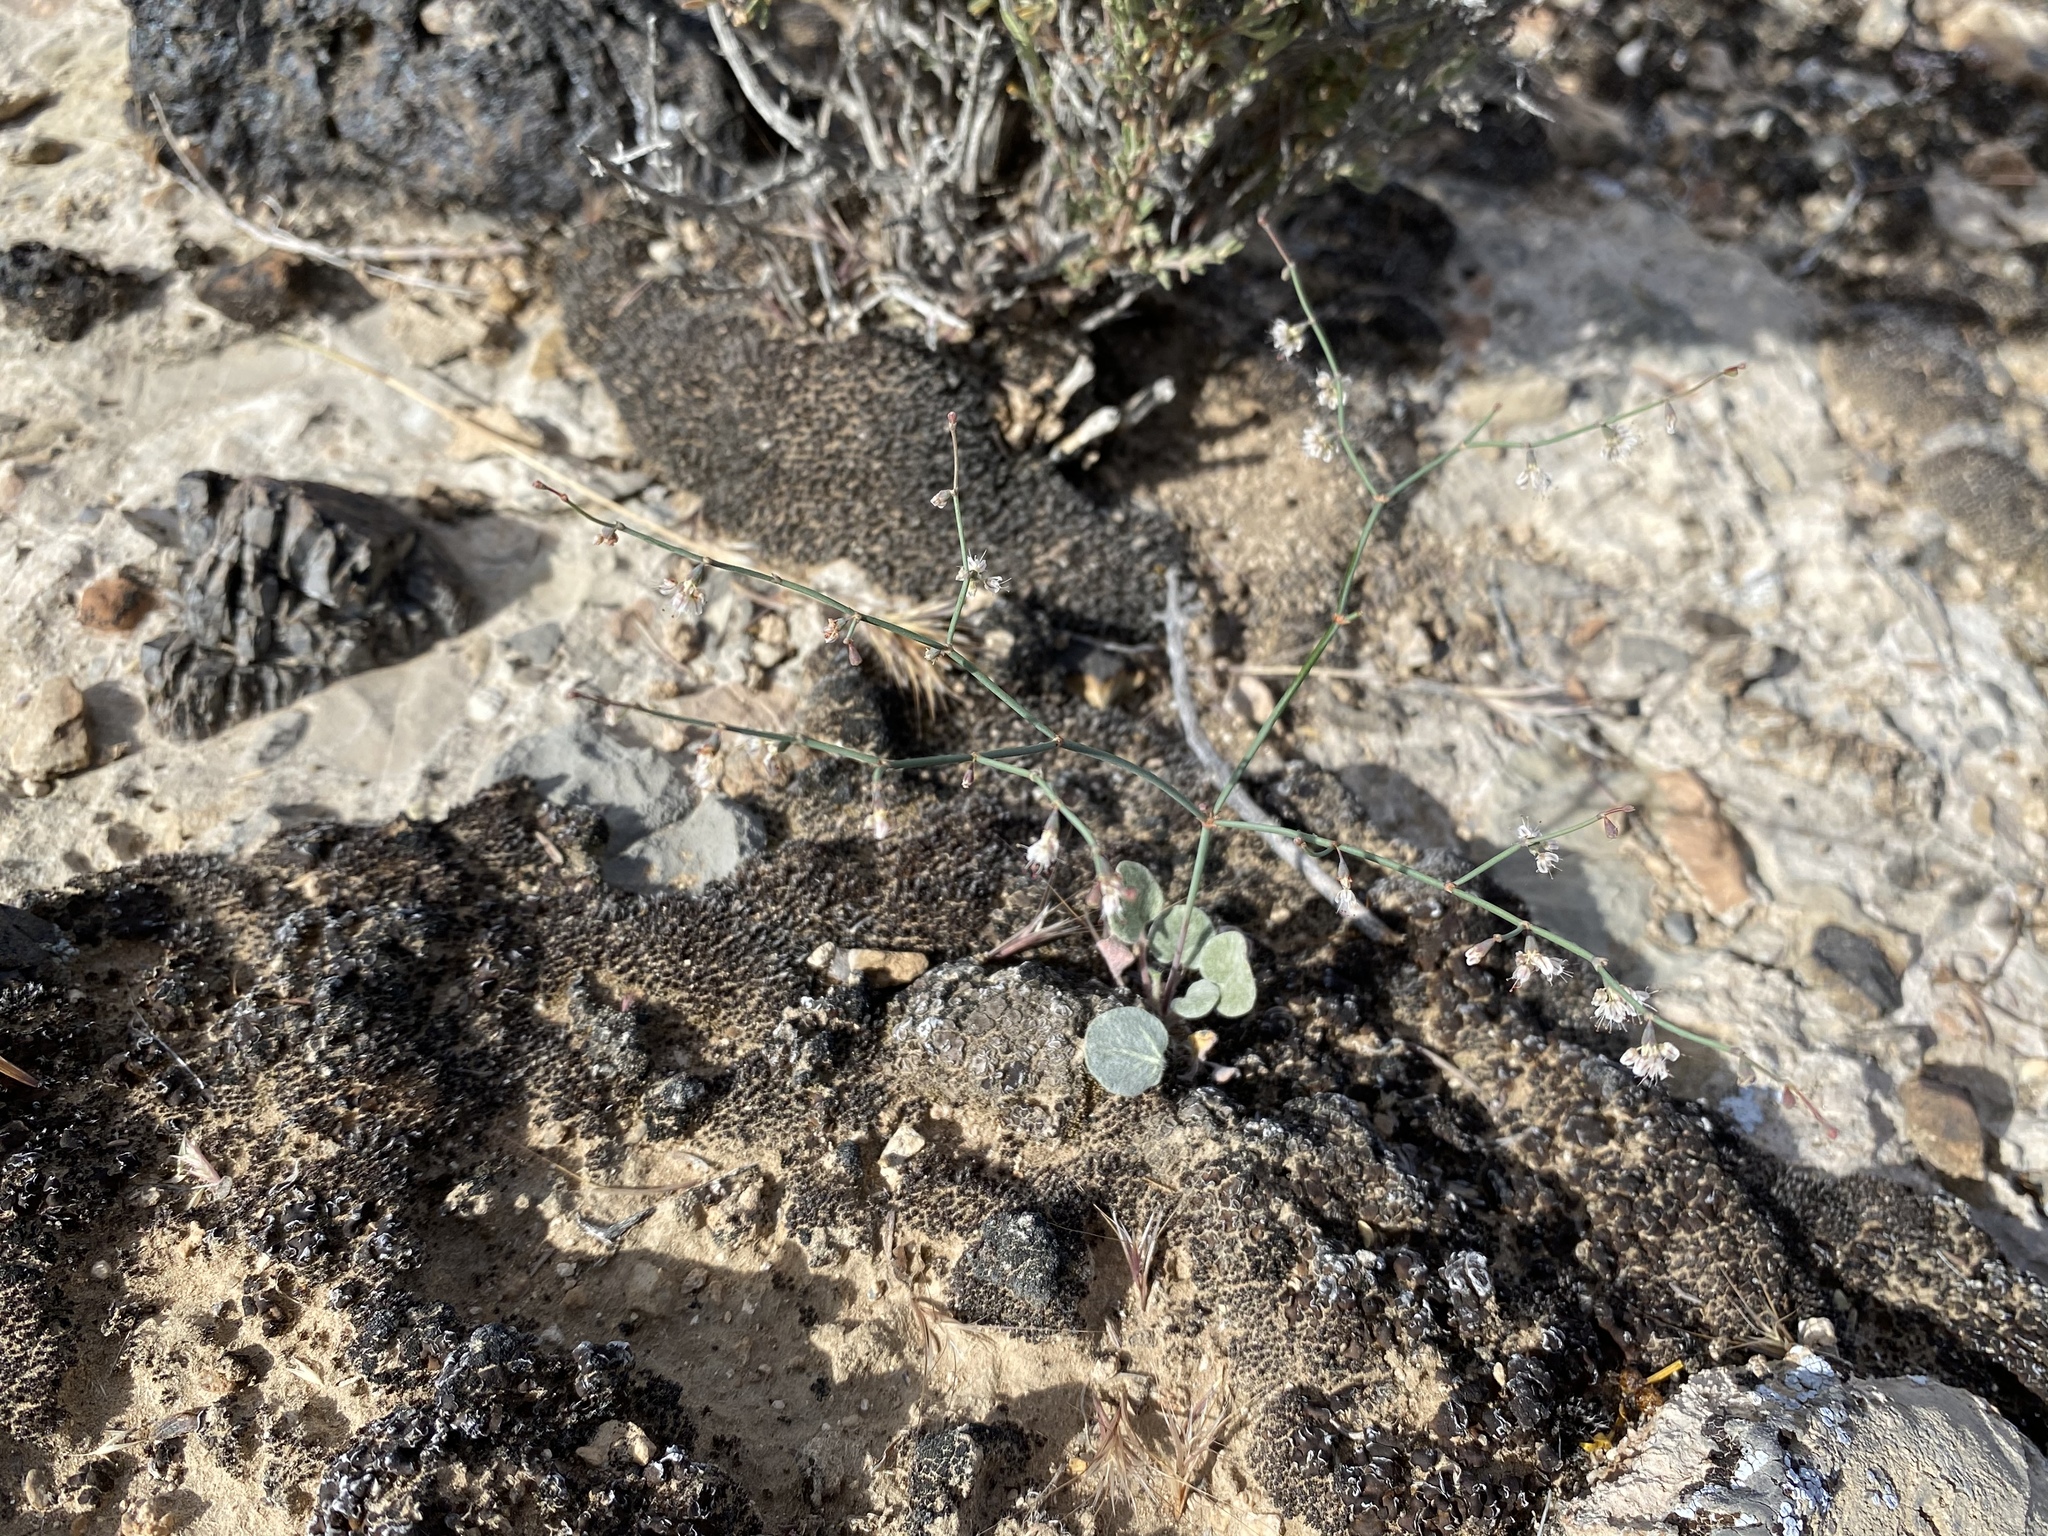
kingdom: Plantae
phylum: Tracheophyta
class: Magnoliopsida
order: Caryophyllales
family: Polygonaceae
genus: Eriogonum
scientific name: Eriogonum deflexum
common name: Skeleton-weed
